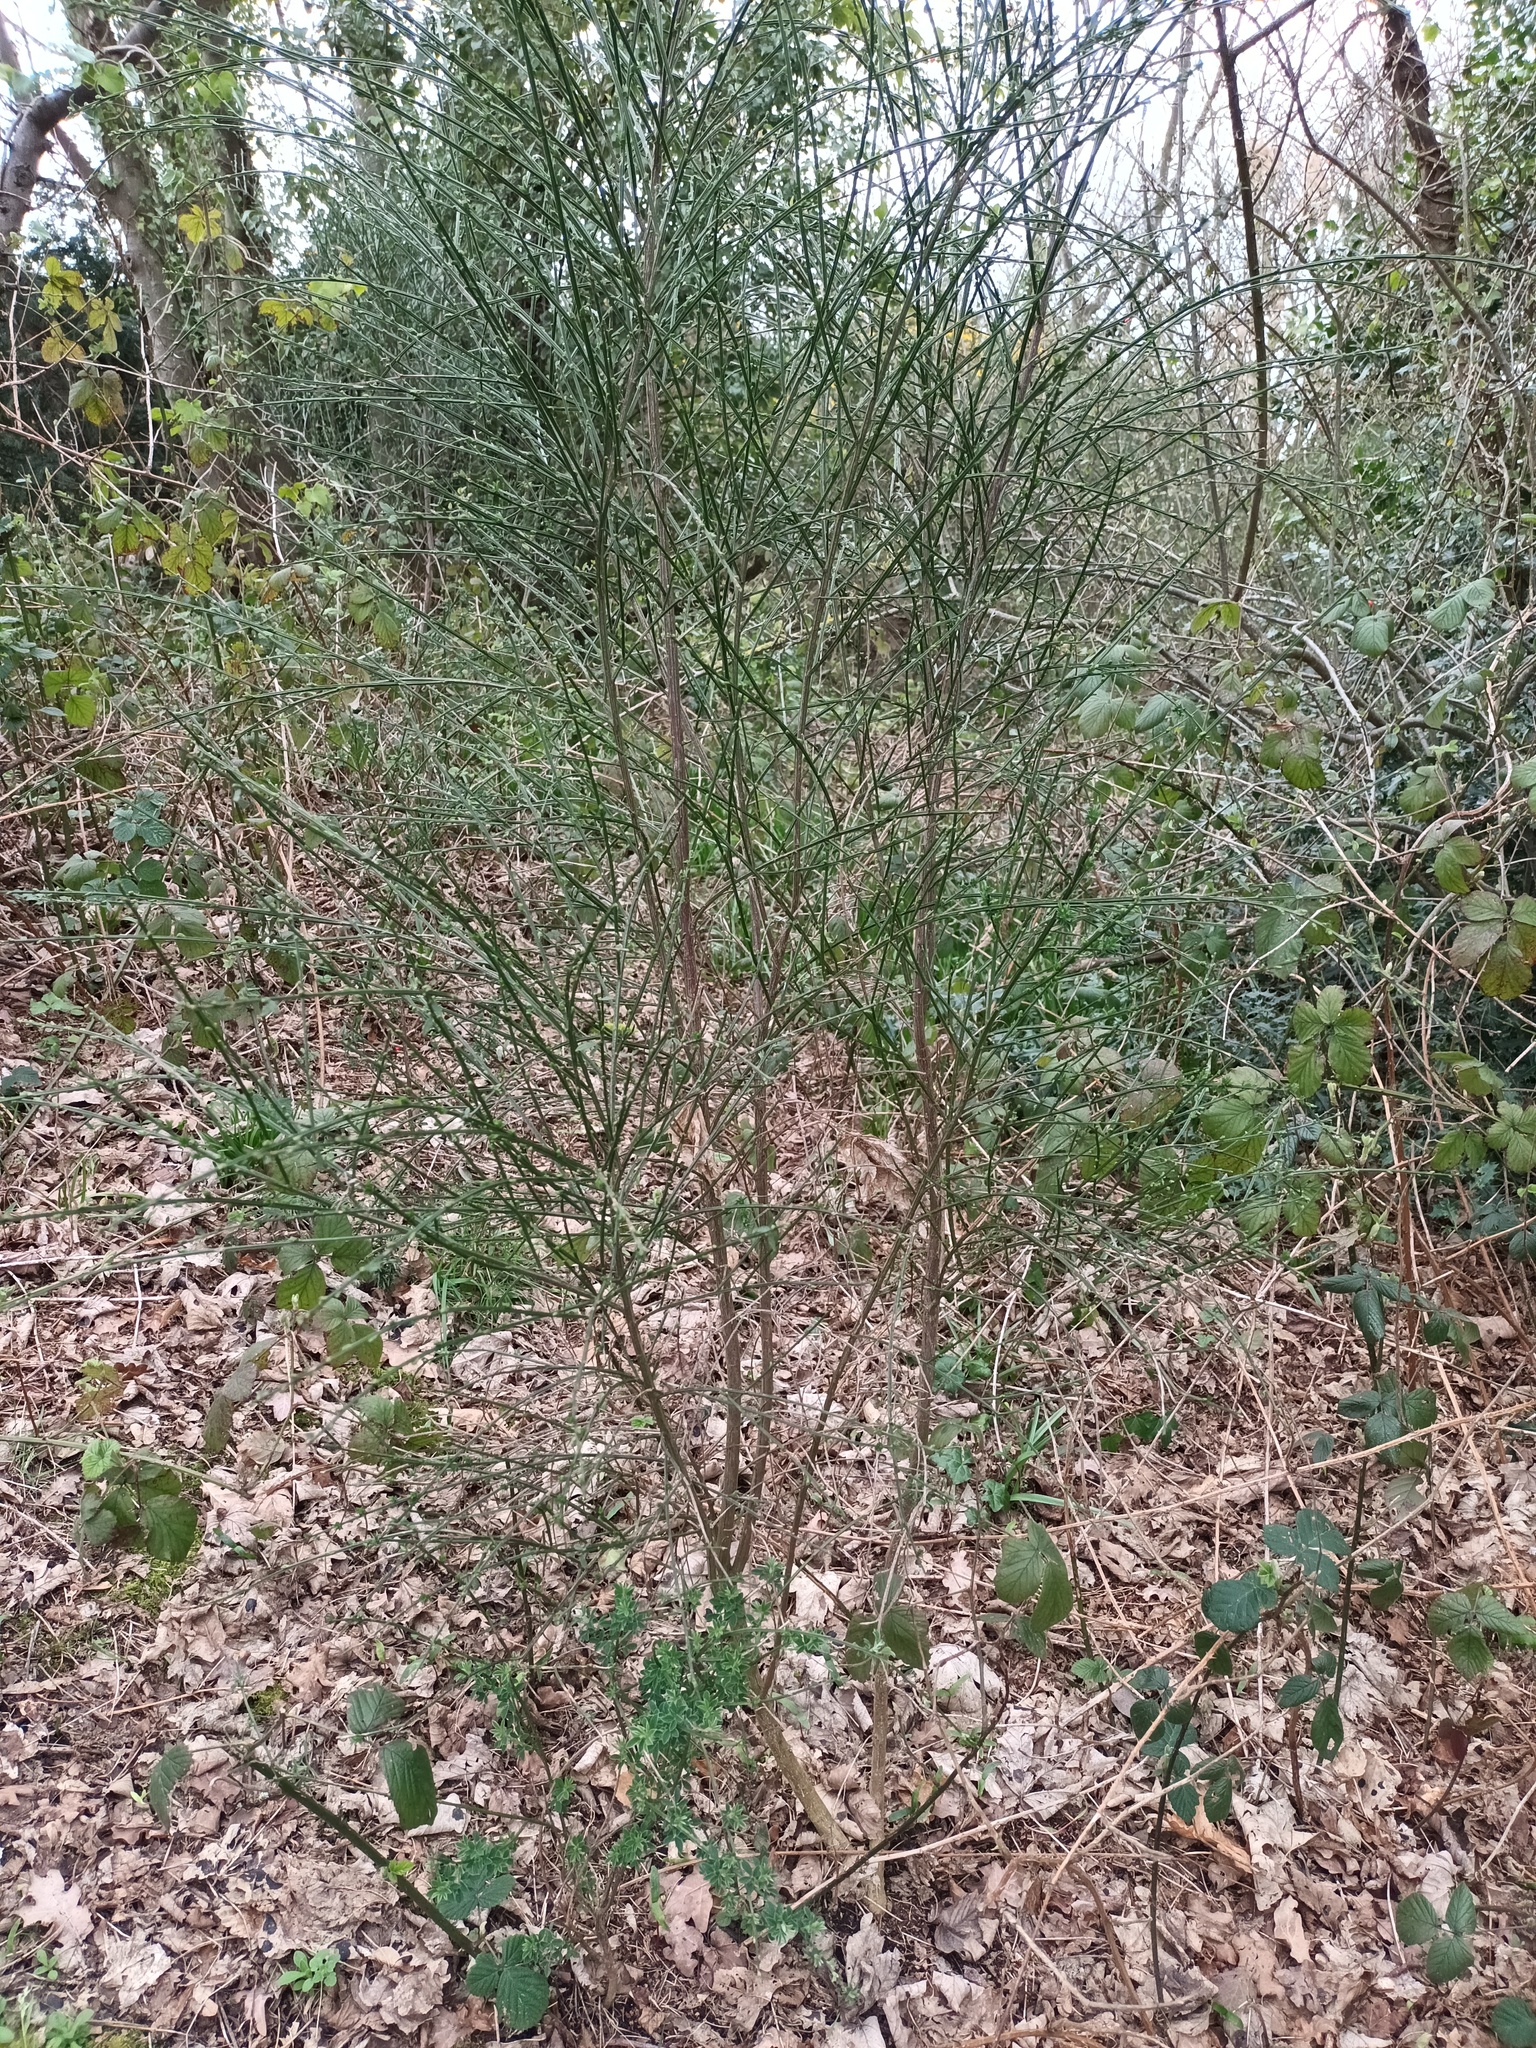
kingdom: Plantae
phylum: Tracheophyta
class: Magnoliopsida
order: Fabales
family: Fabaceae
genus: Cytisus
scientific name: Cytisus scoparius
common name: Scotch broom
